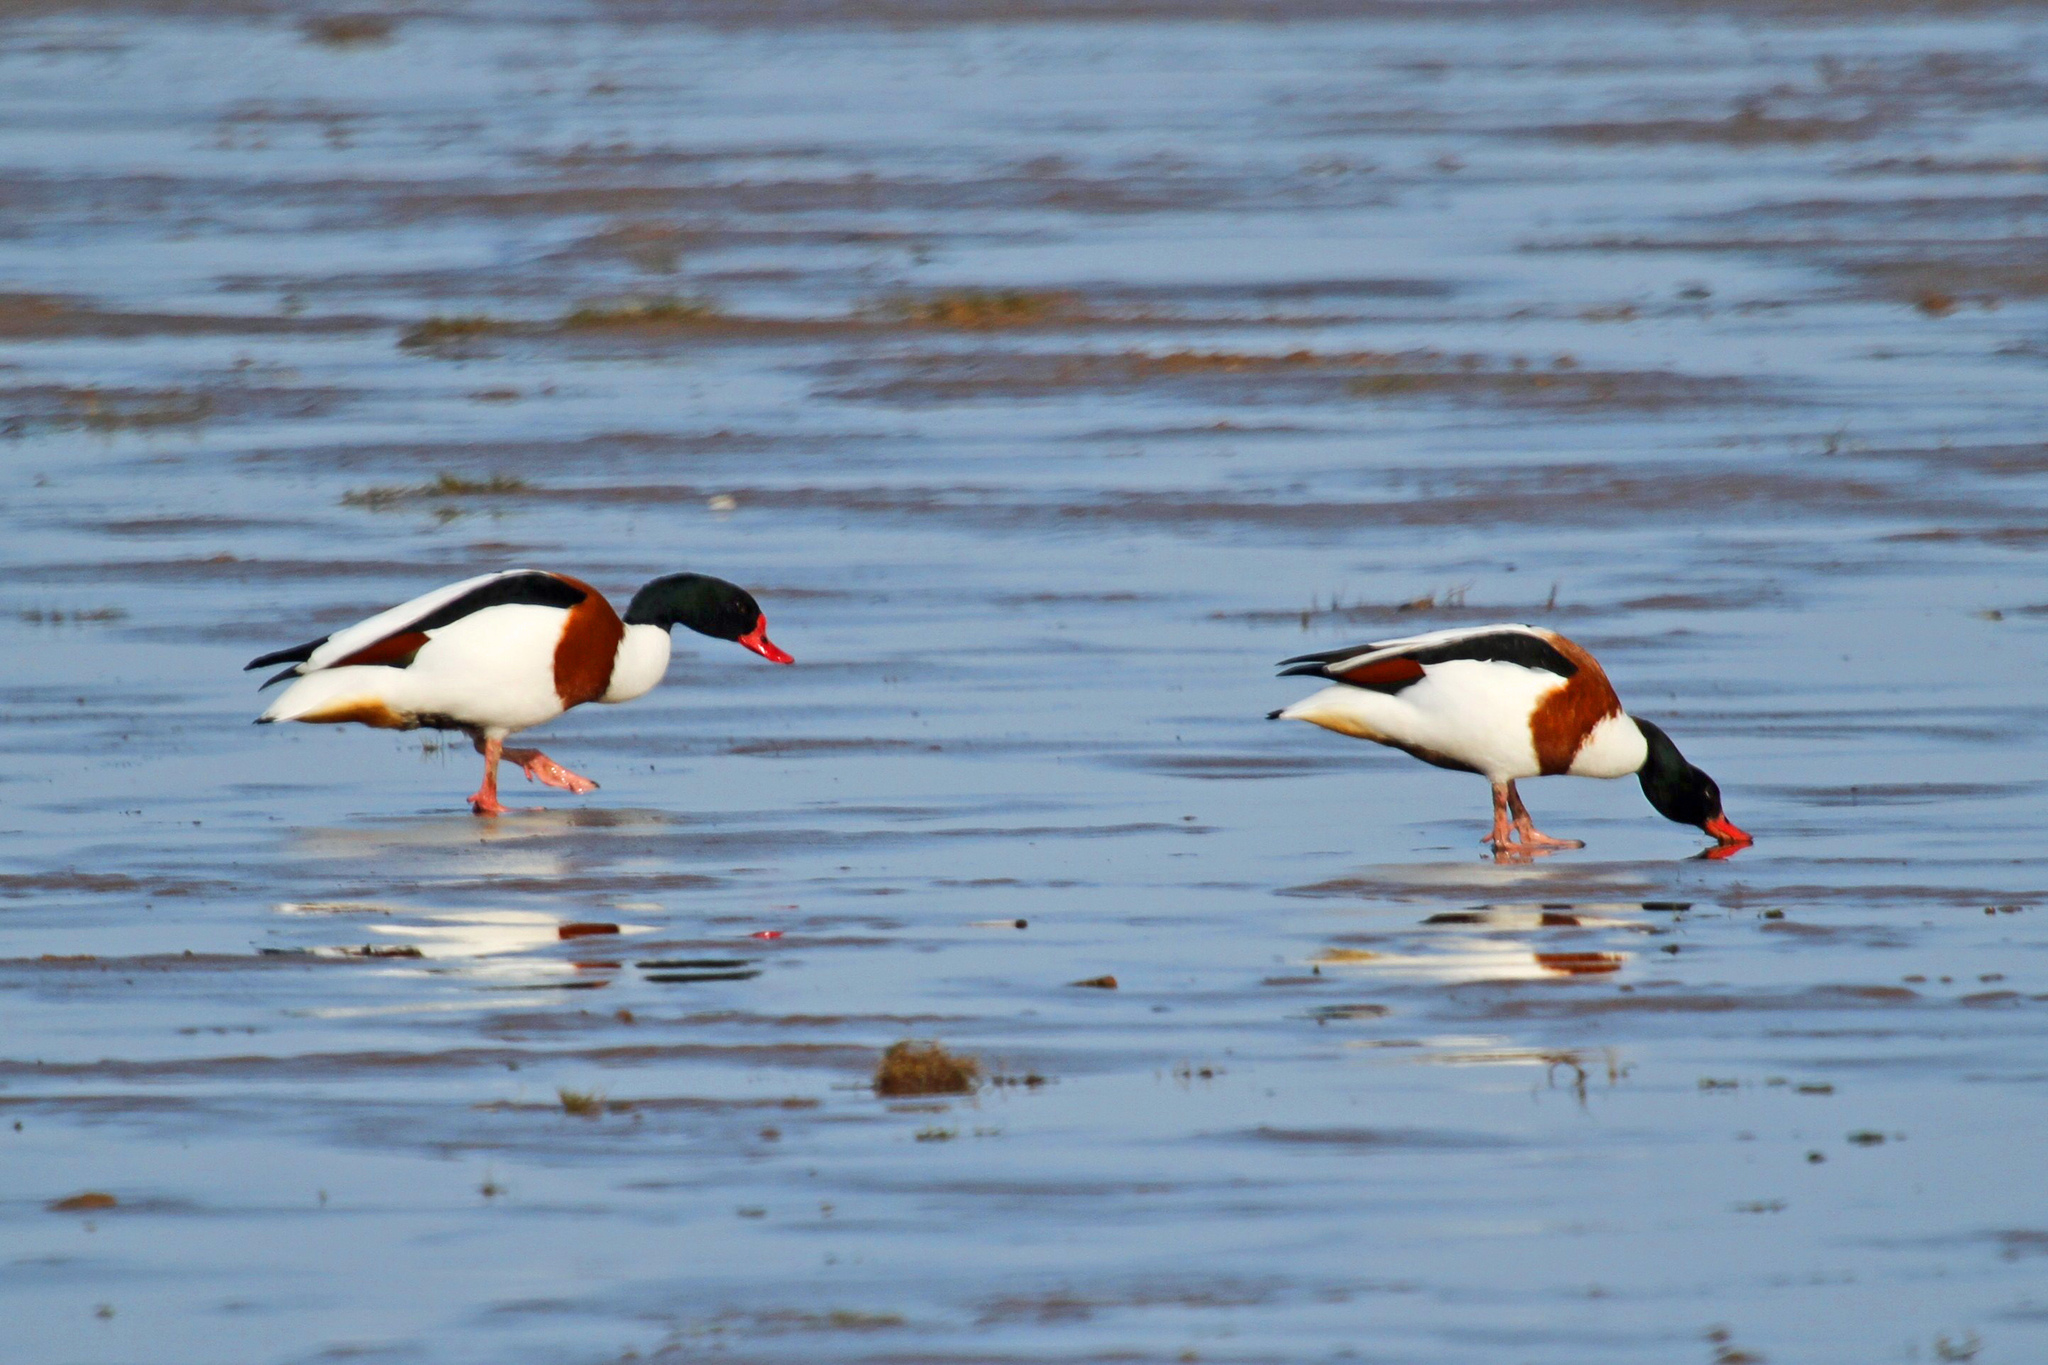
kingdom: Animalia
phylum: Chordata
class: Aves
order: Anseriformes
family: Anatidae
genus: Tadorna
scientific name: Tadorna tadorna
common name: Common shelduck
